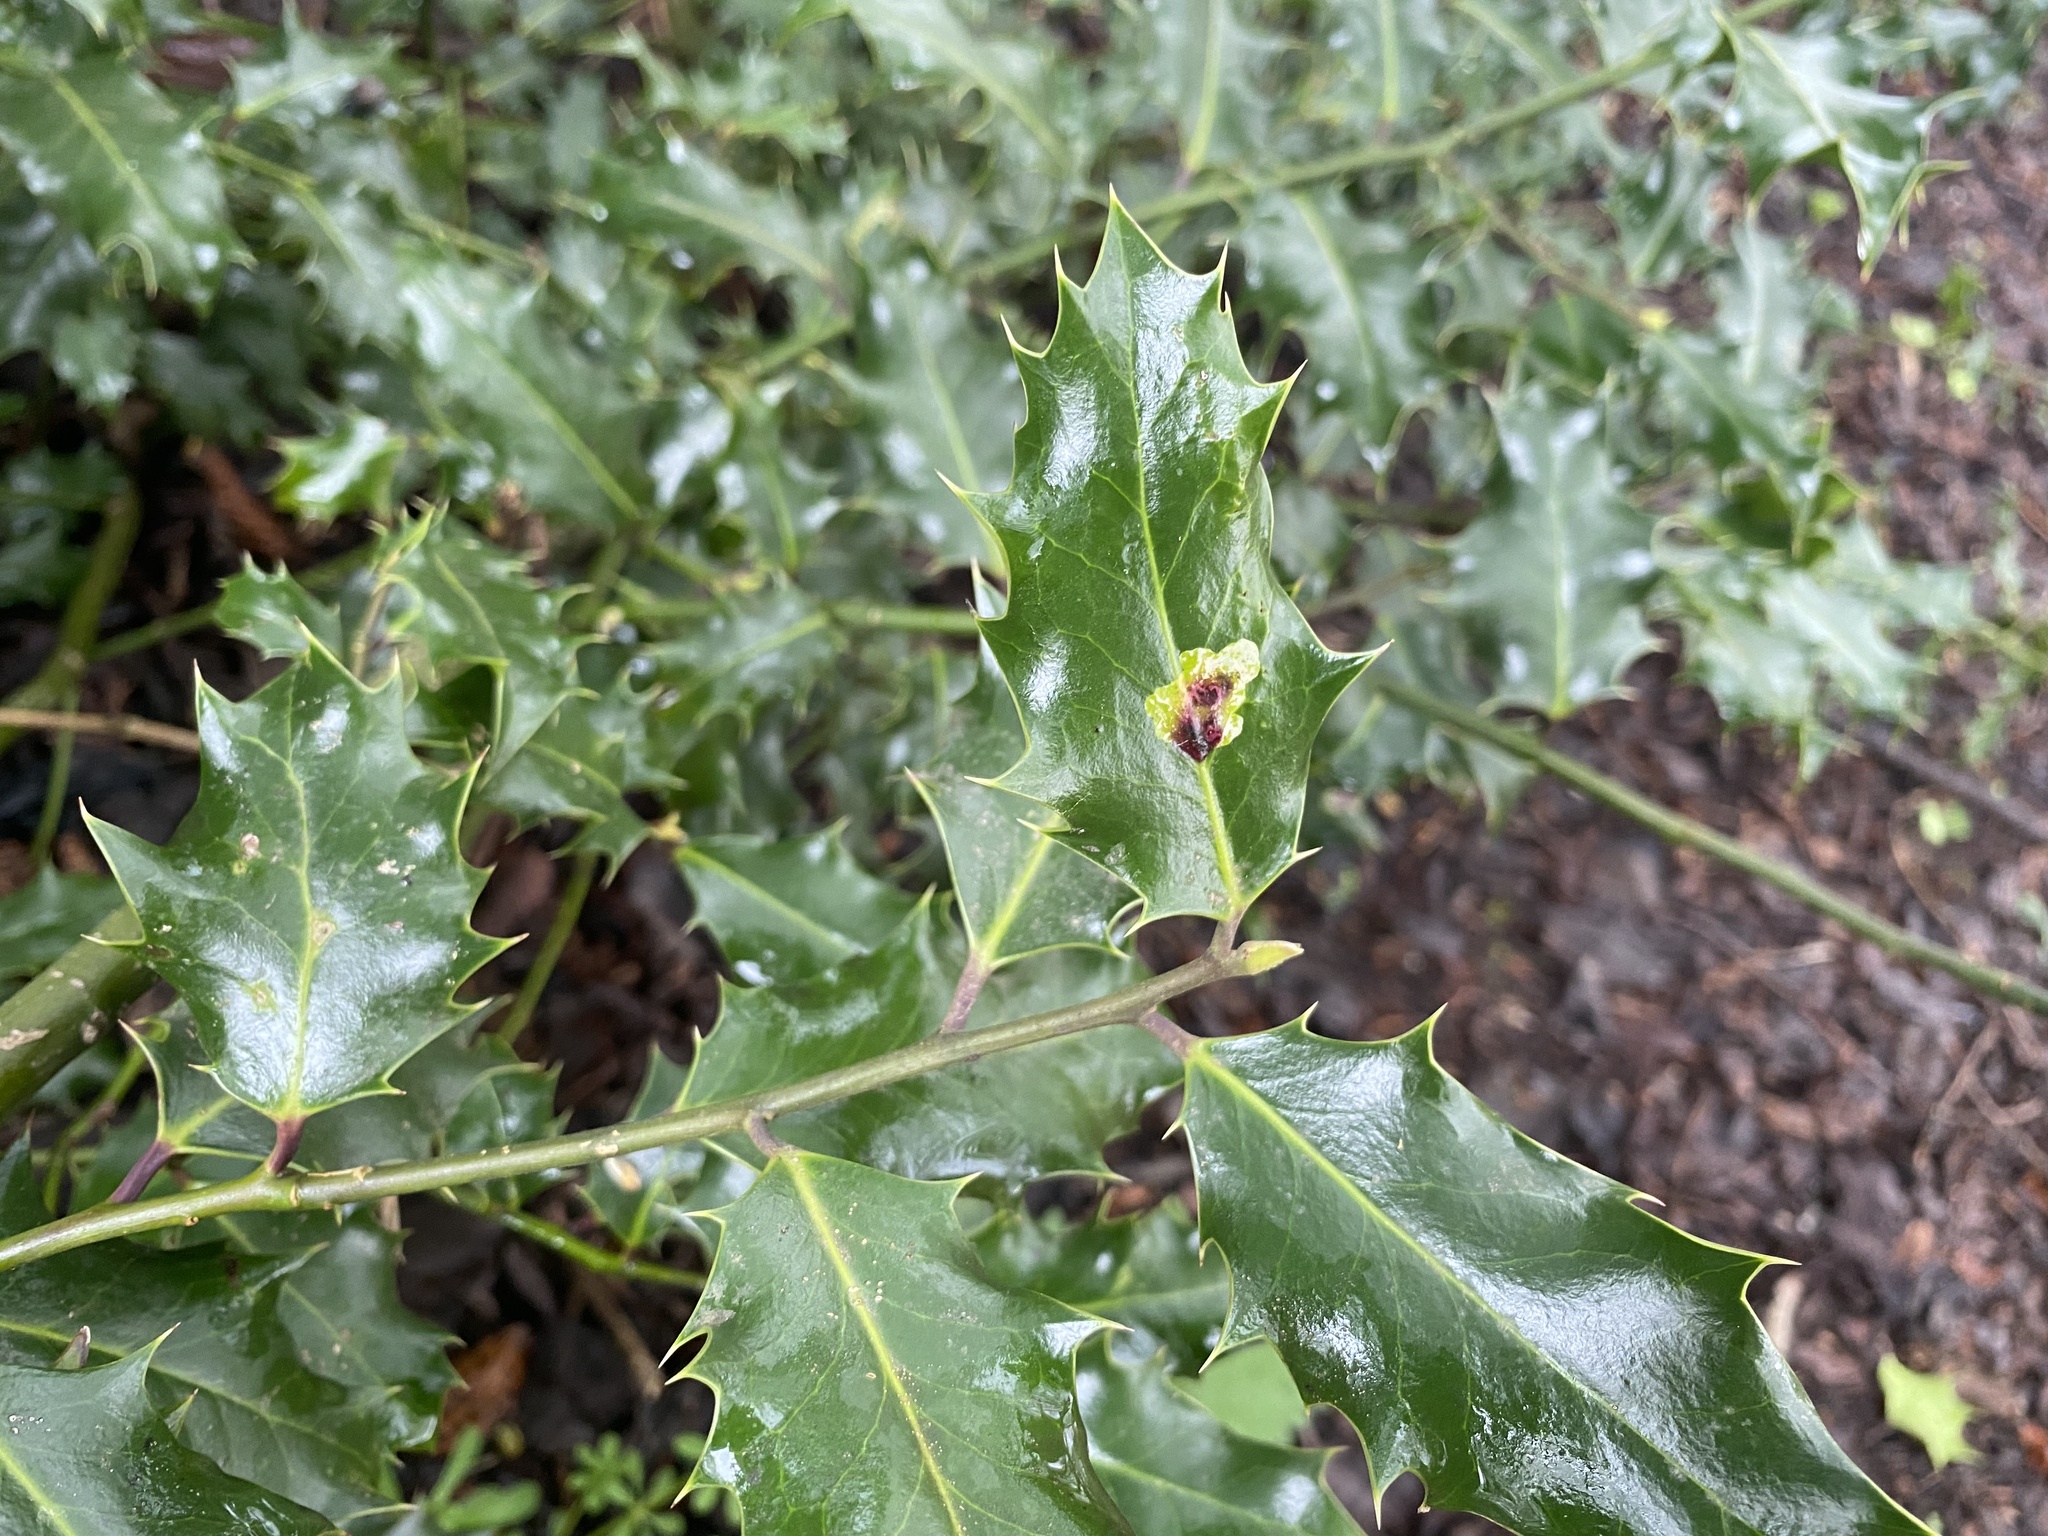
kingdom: Plantae
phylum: Tracheophyta
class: Magnoliopsida
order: Aquifoliales
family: Aquifoliaceae
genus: Ilex
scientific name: Ilex aquifolium
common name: English holly
